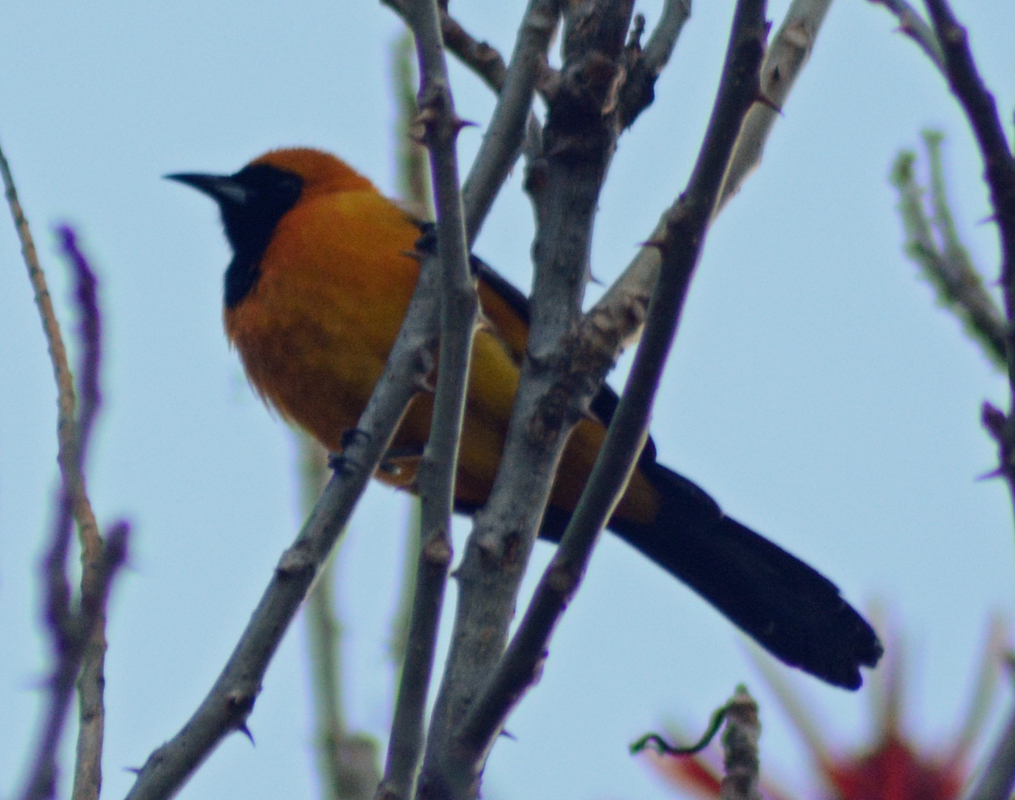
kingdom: Animalia
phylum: Chordata
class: Aves
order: Passeriformes
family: Icteridae
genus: Icterus
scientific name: Icterus cucullatus
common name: Hooded oriole
